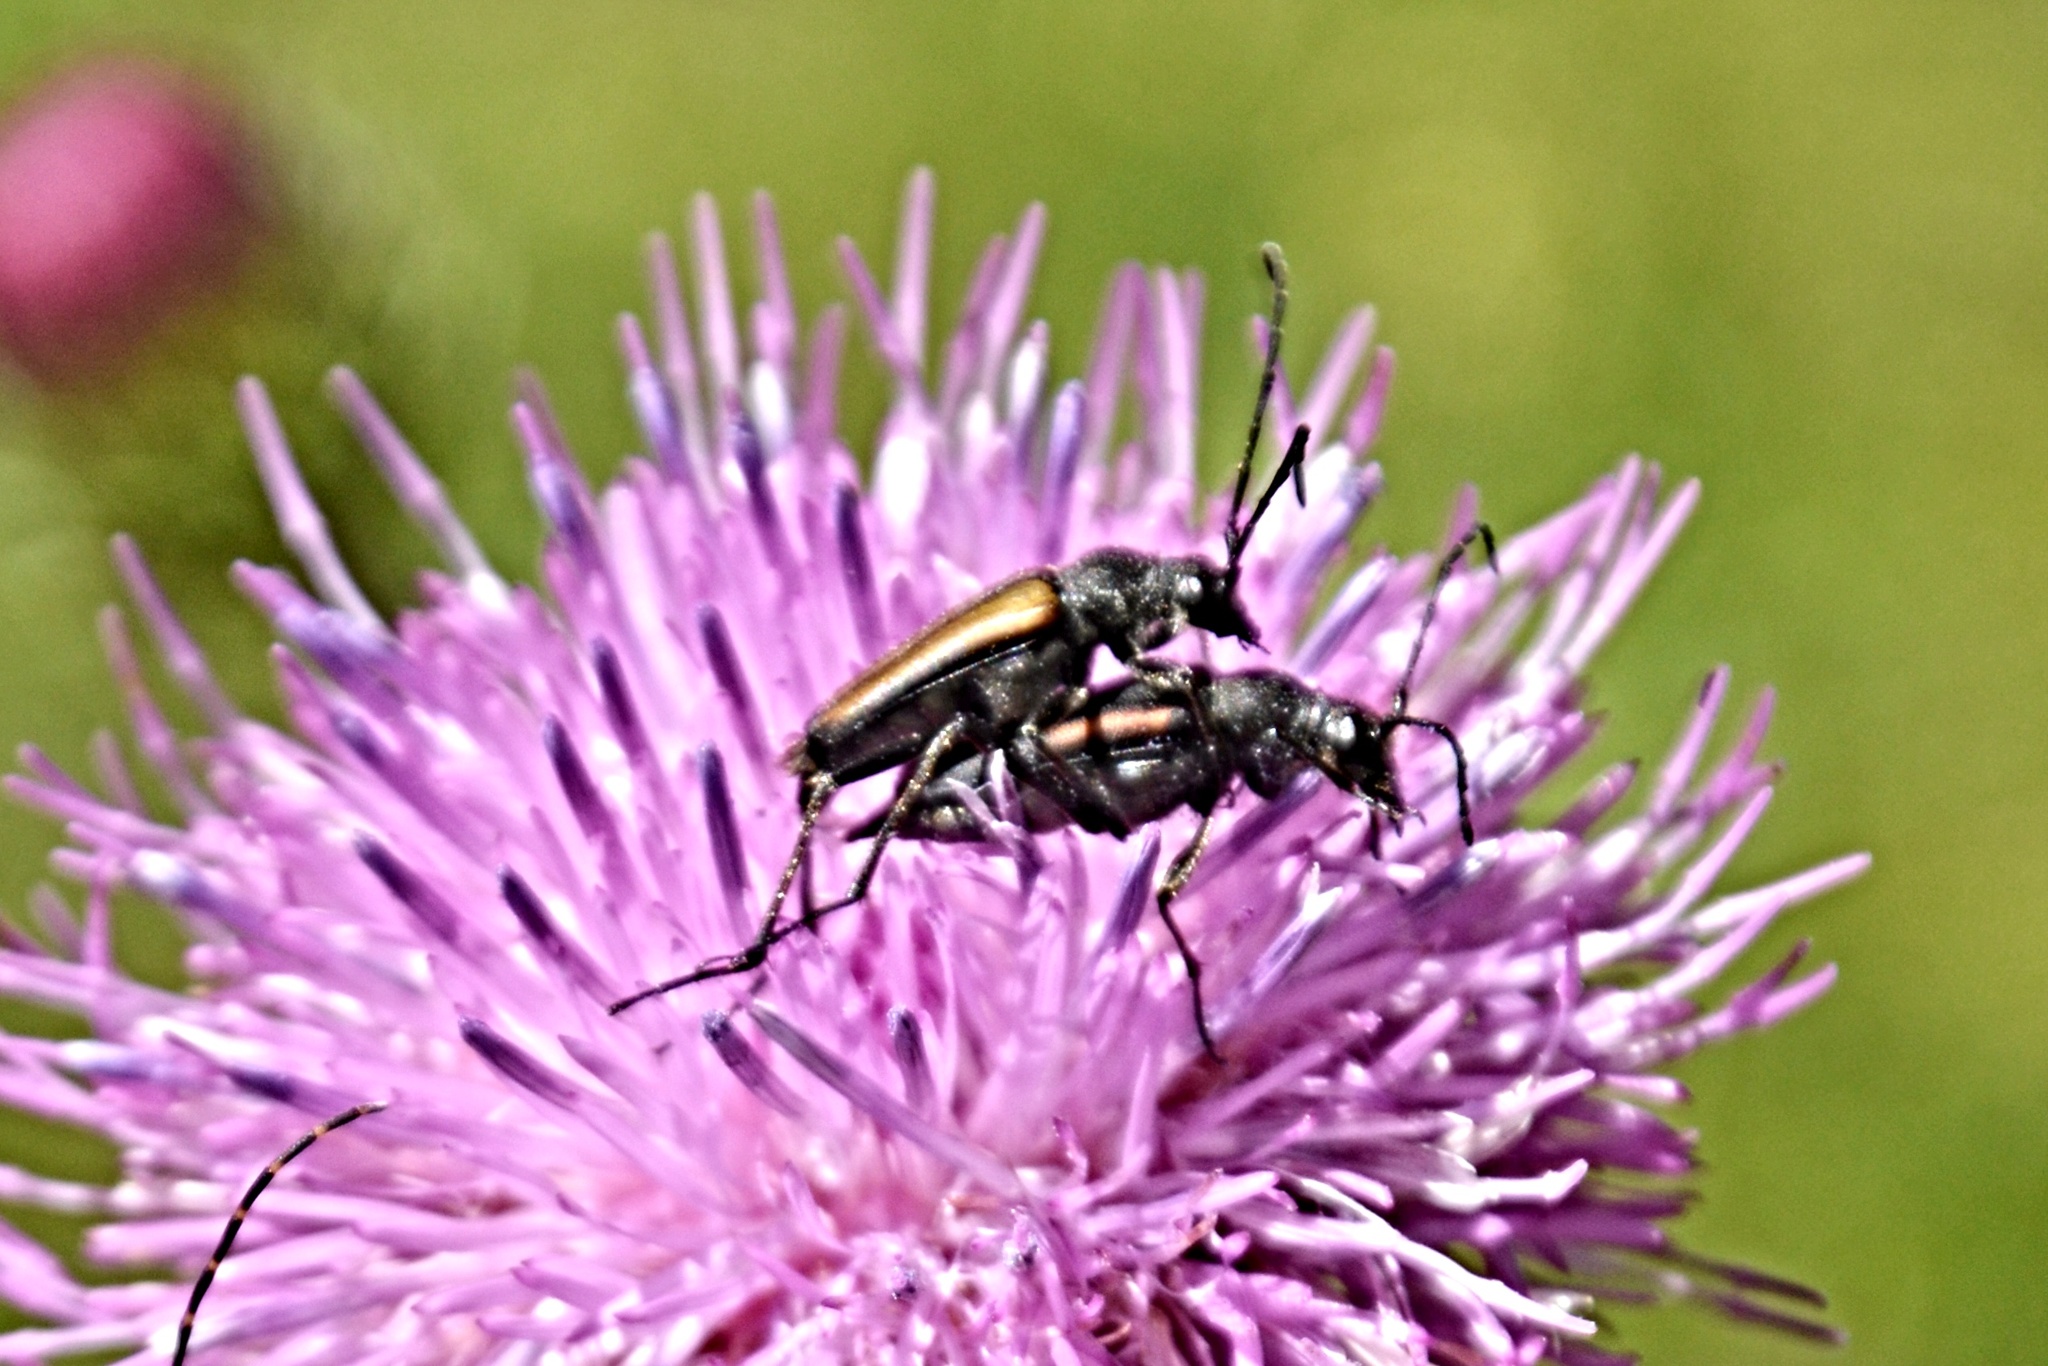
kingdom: Animalia
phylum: Arthropoda
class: Insecta
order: Coleoptera
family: Cerambycidae
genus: Stenurella
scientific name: Stenurella melanura
